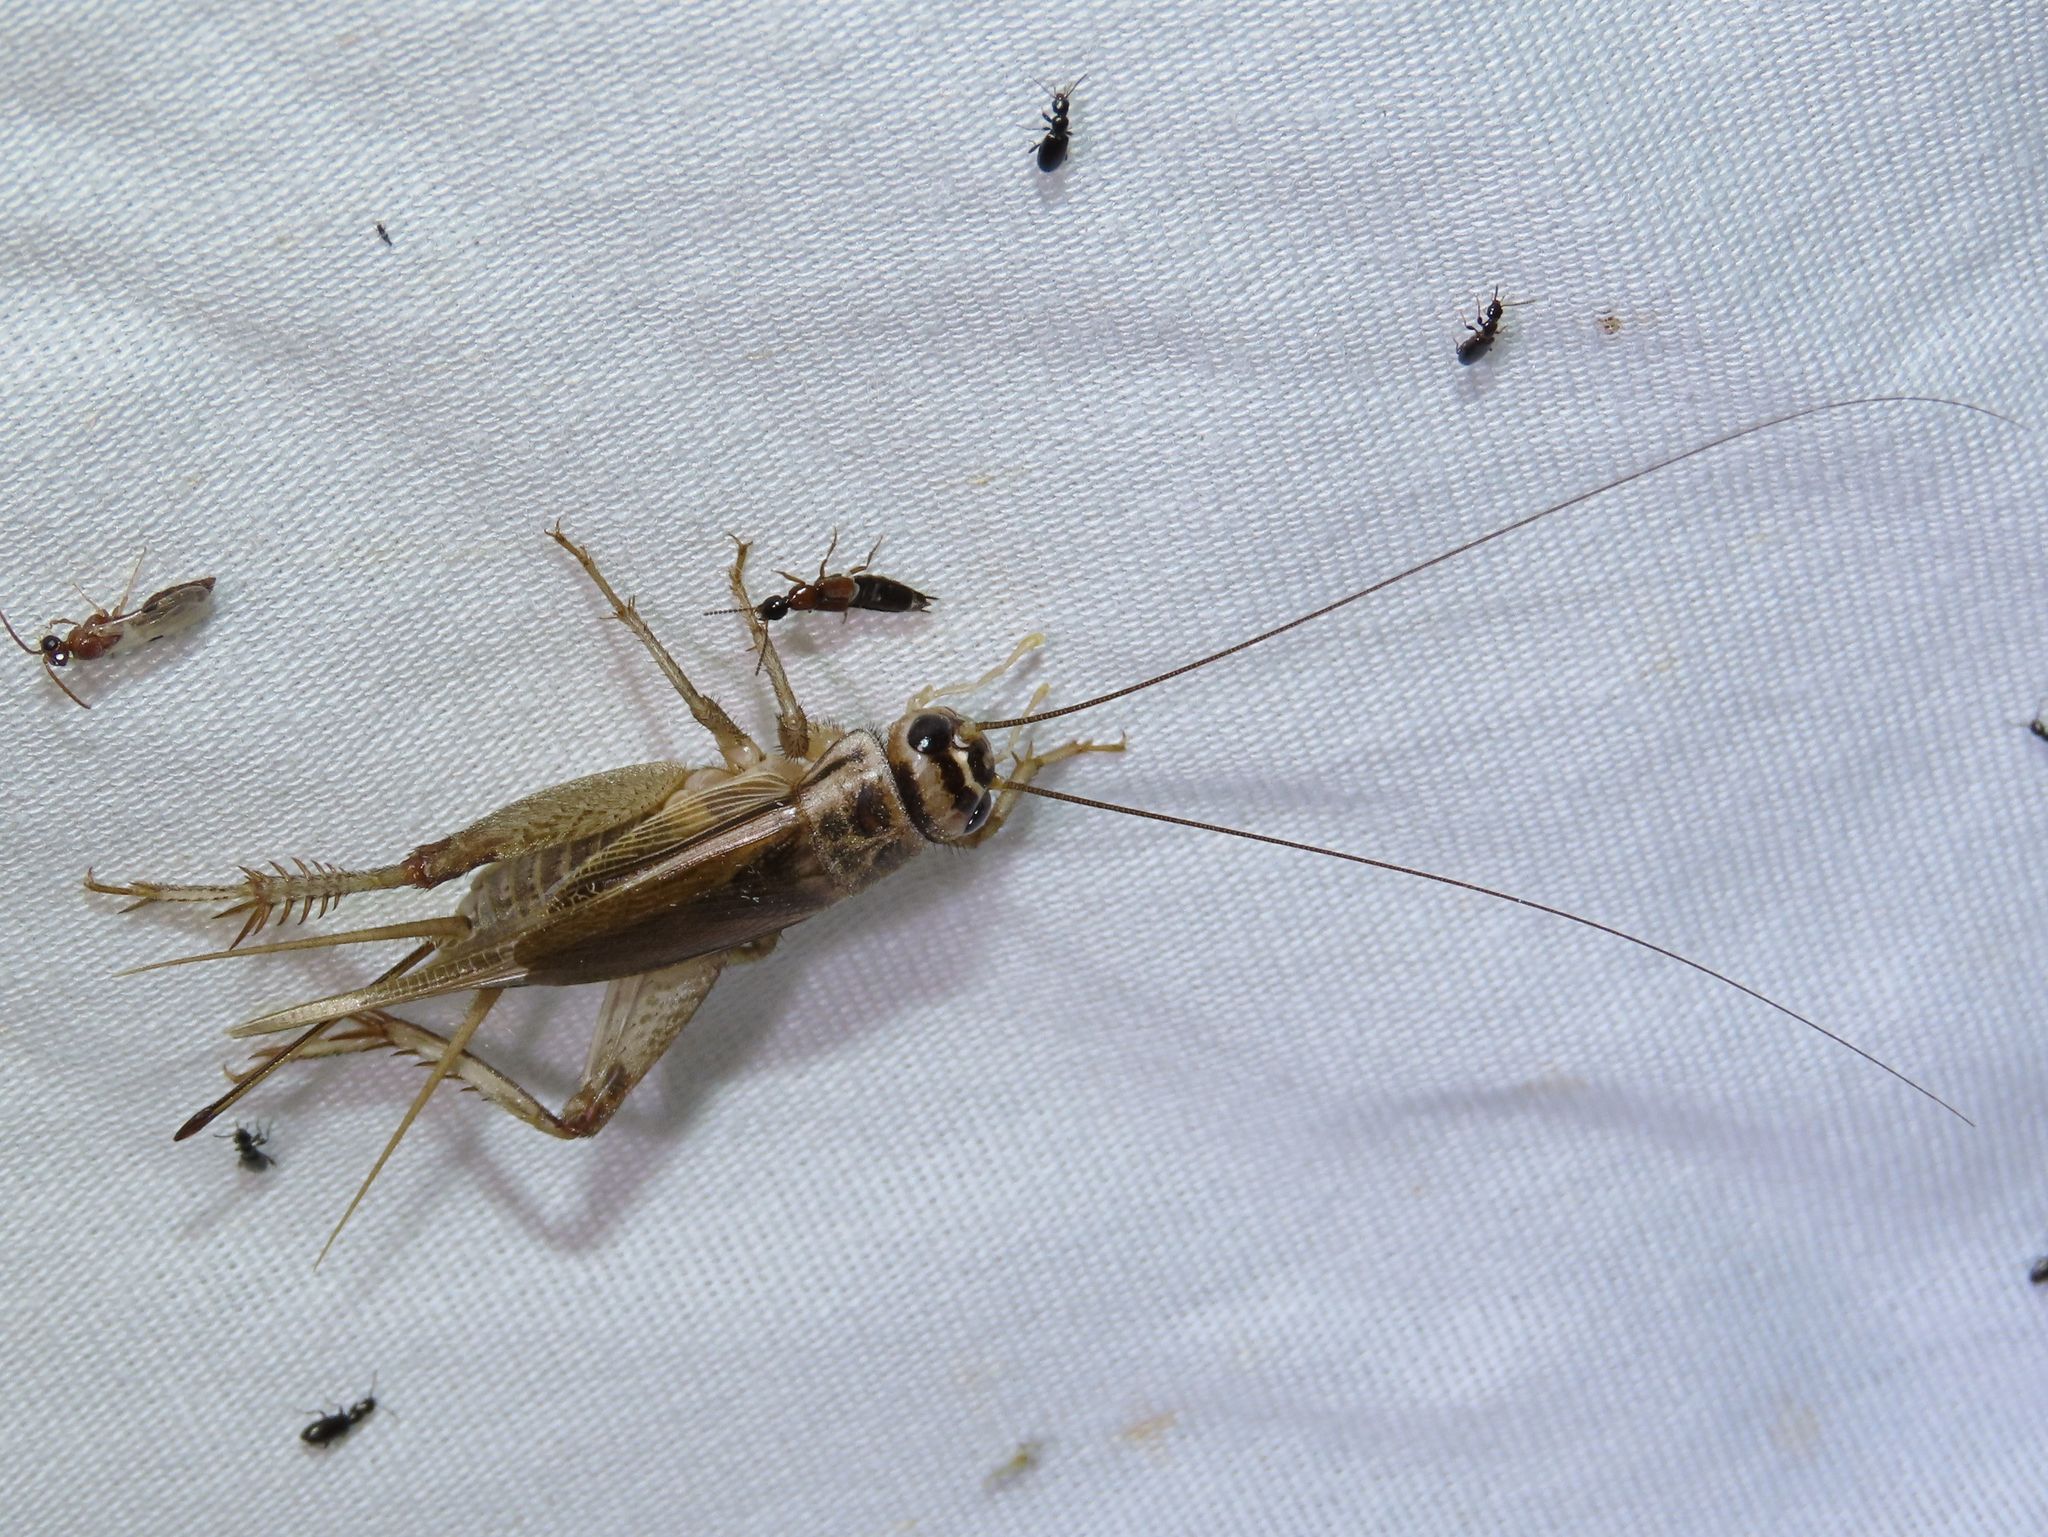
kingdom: Animalia
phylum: Arthropoda
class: Insecta
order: Orthoptera
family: Gryllidae
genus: Acheta
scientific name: Acheta domesticus
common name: House cricket
